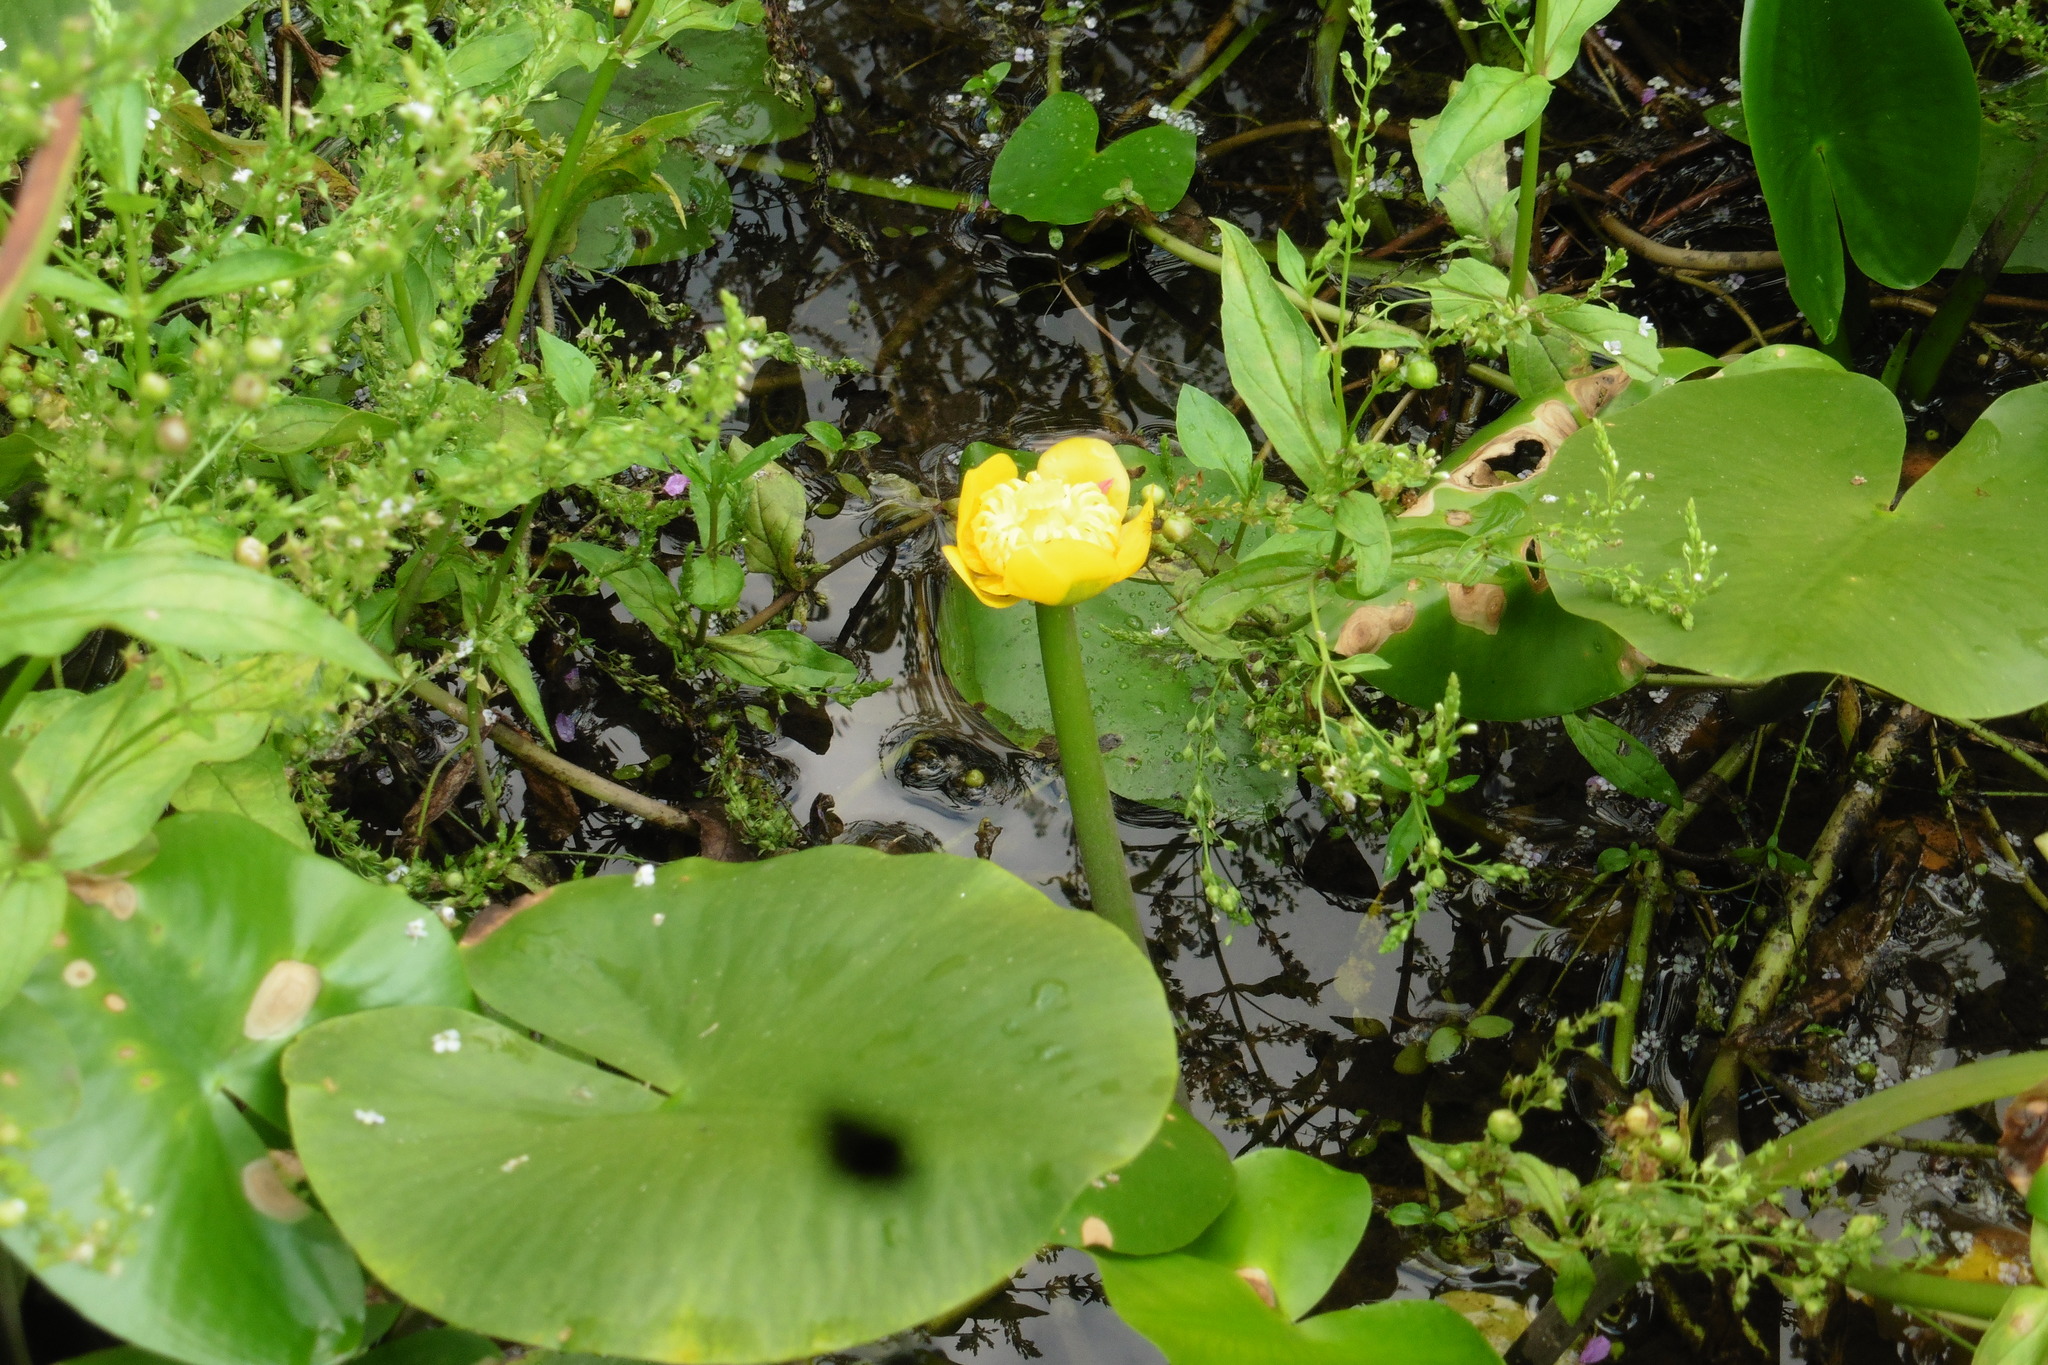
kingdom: Plantae
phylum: Tracheophyta
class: Magnoliopsida
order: Nymphaeales
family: Nymphaeaceae
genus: Nuphar
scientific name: Nuphar lutea
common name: Yellow water-lily
